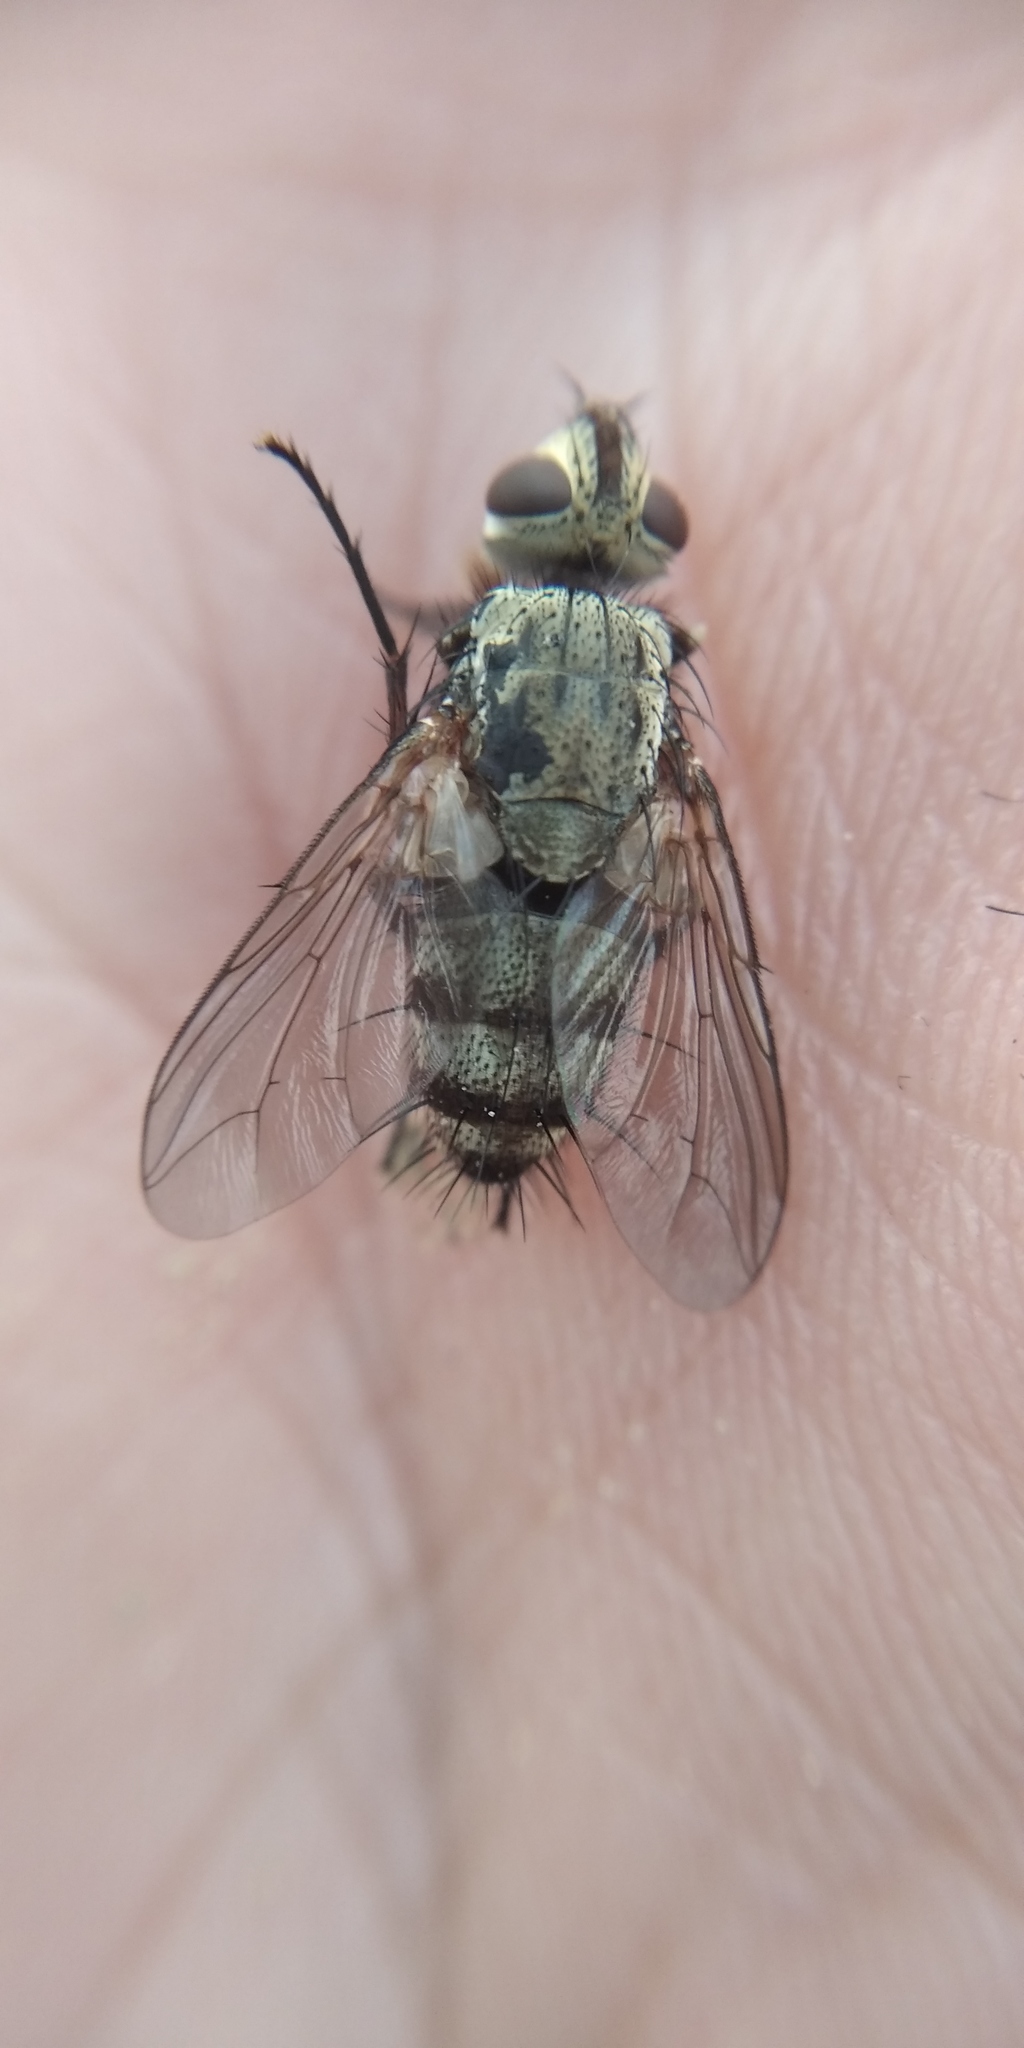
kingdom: Animalia
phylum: Arthropoda
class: Insecta
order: Diptera
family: Tachinidae
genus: Microphthalma
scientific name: Microphthalma europaea
